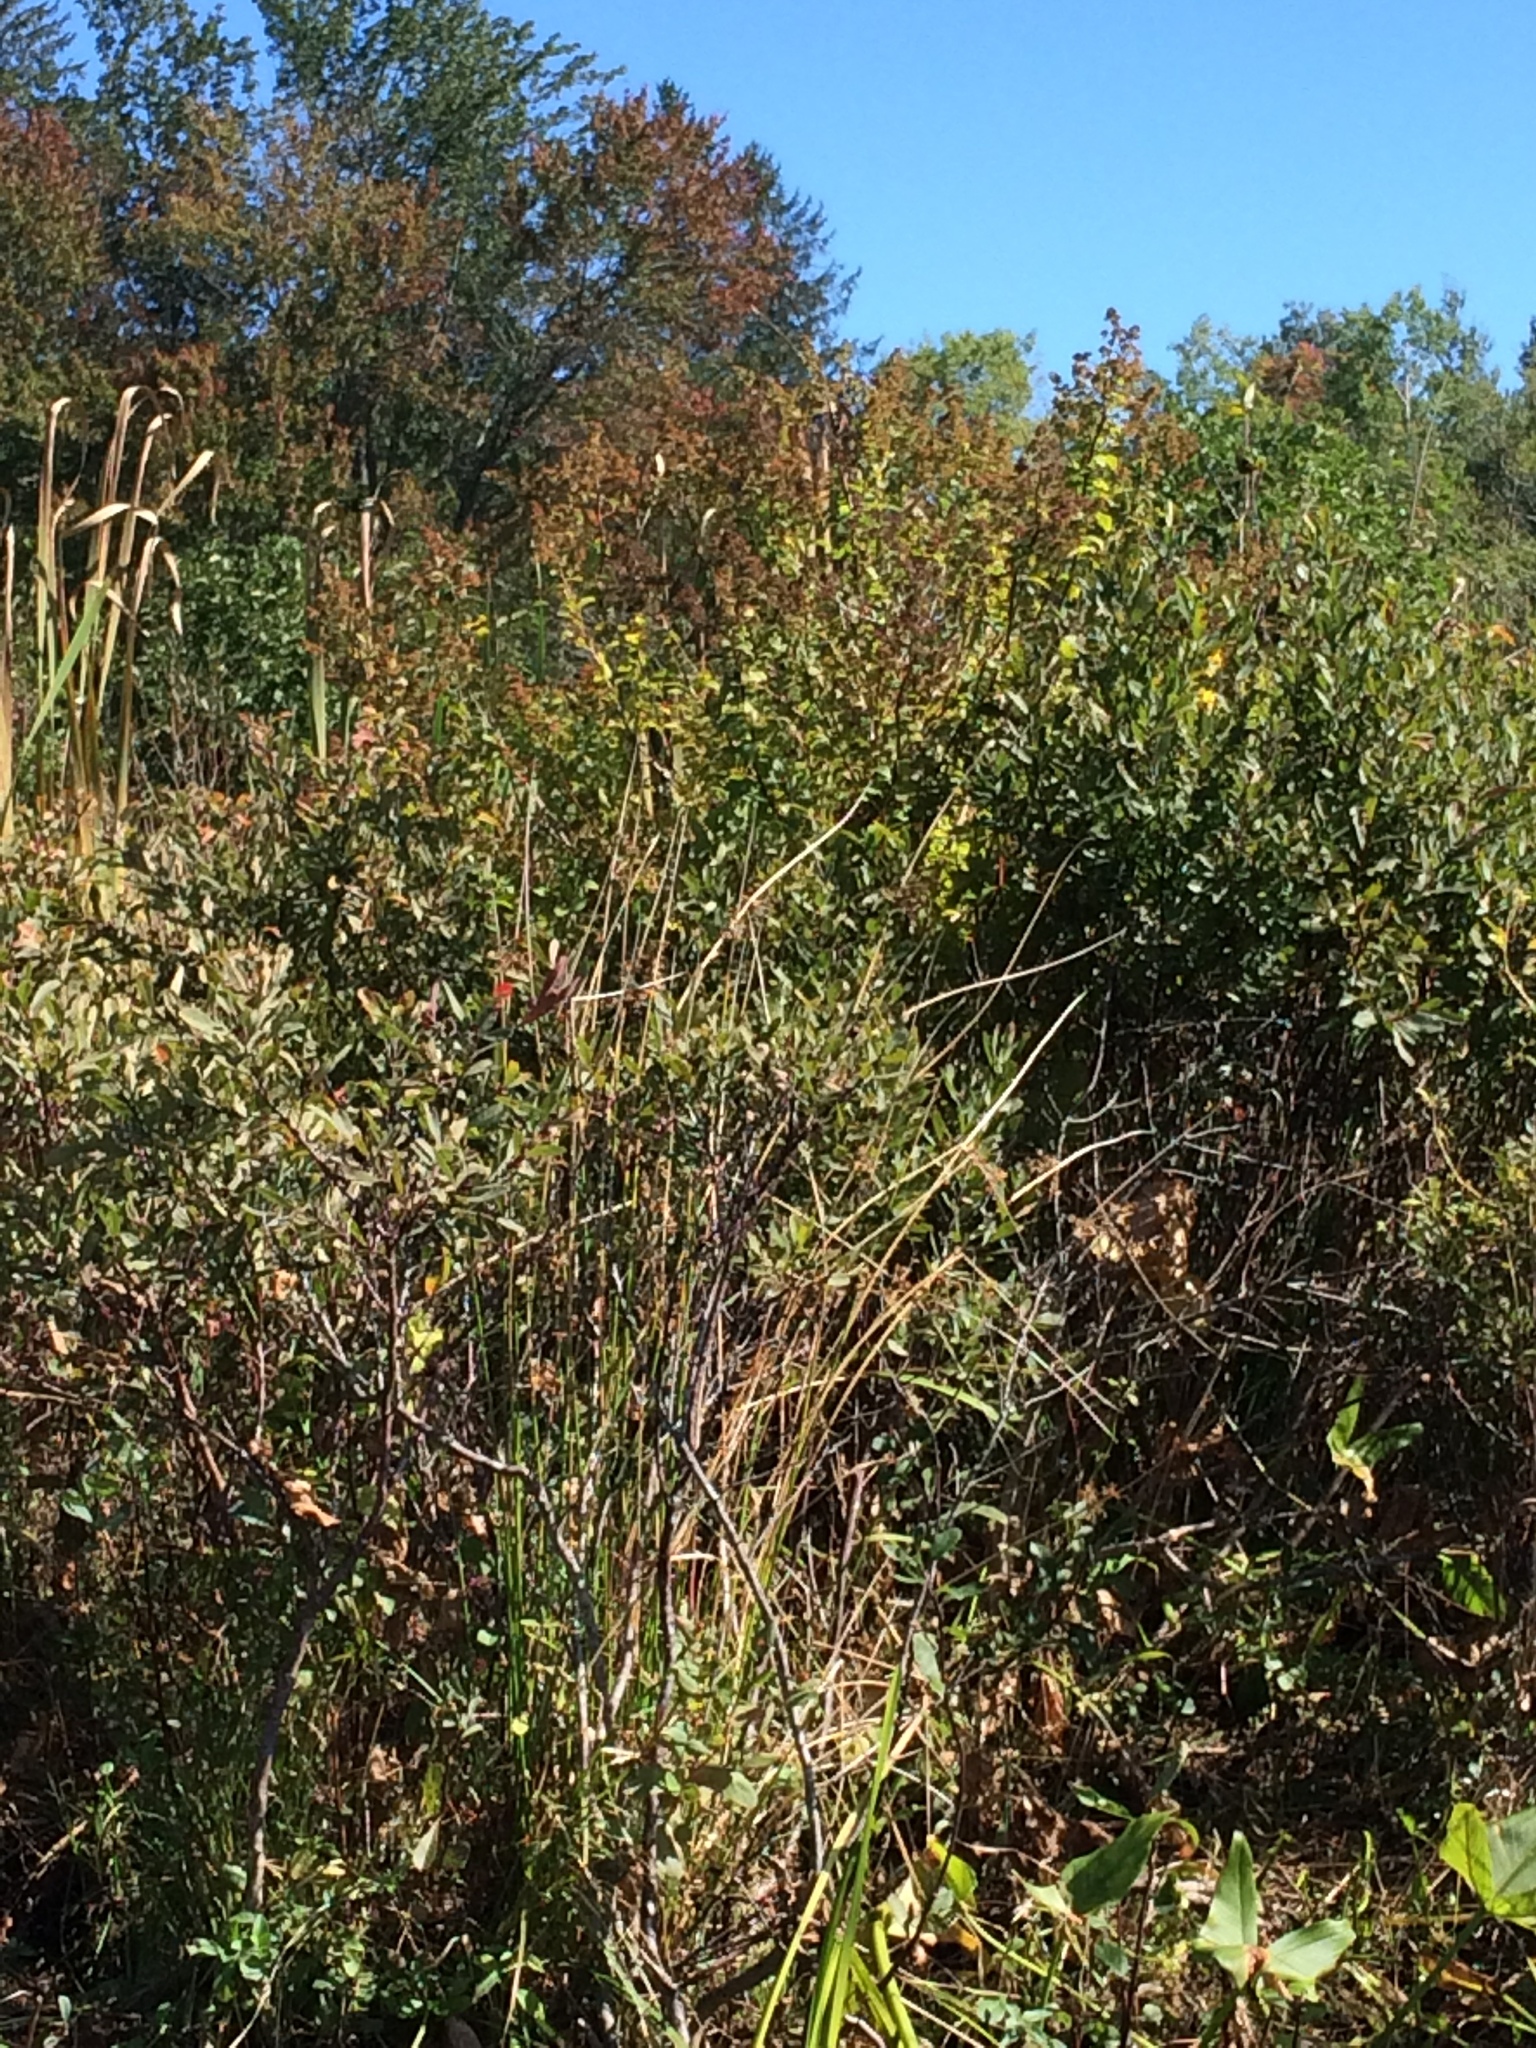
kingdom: Plantae
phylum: Tracheophyta
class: Magnoliopsida
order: Rosales
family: Rosaceae
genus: Spiraea
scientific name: Spiraea alba
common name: Pale bridewort
